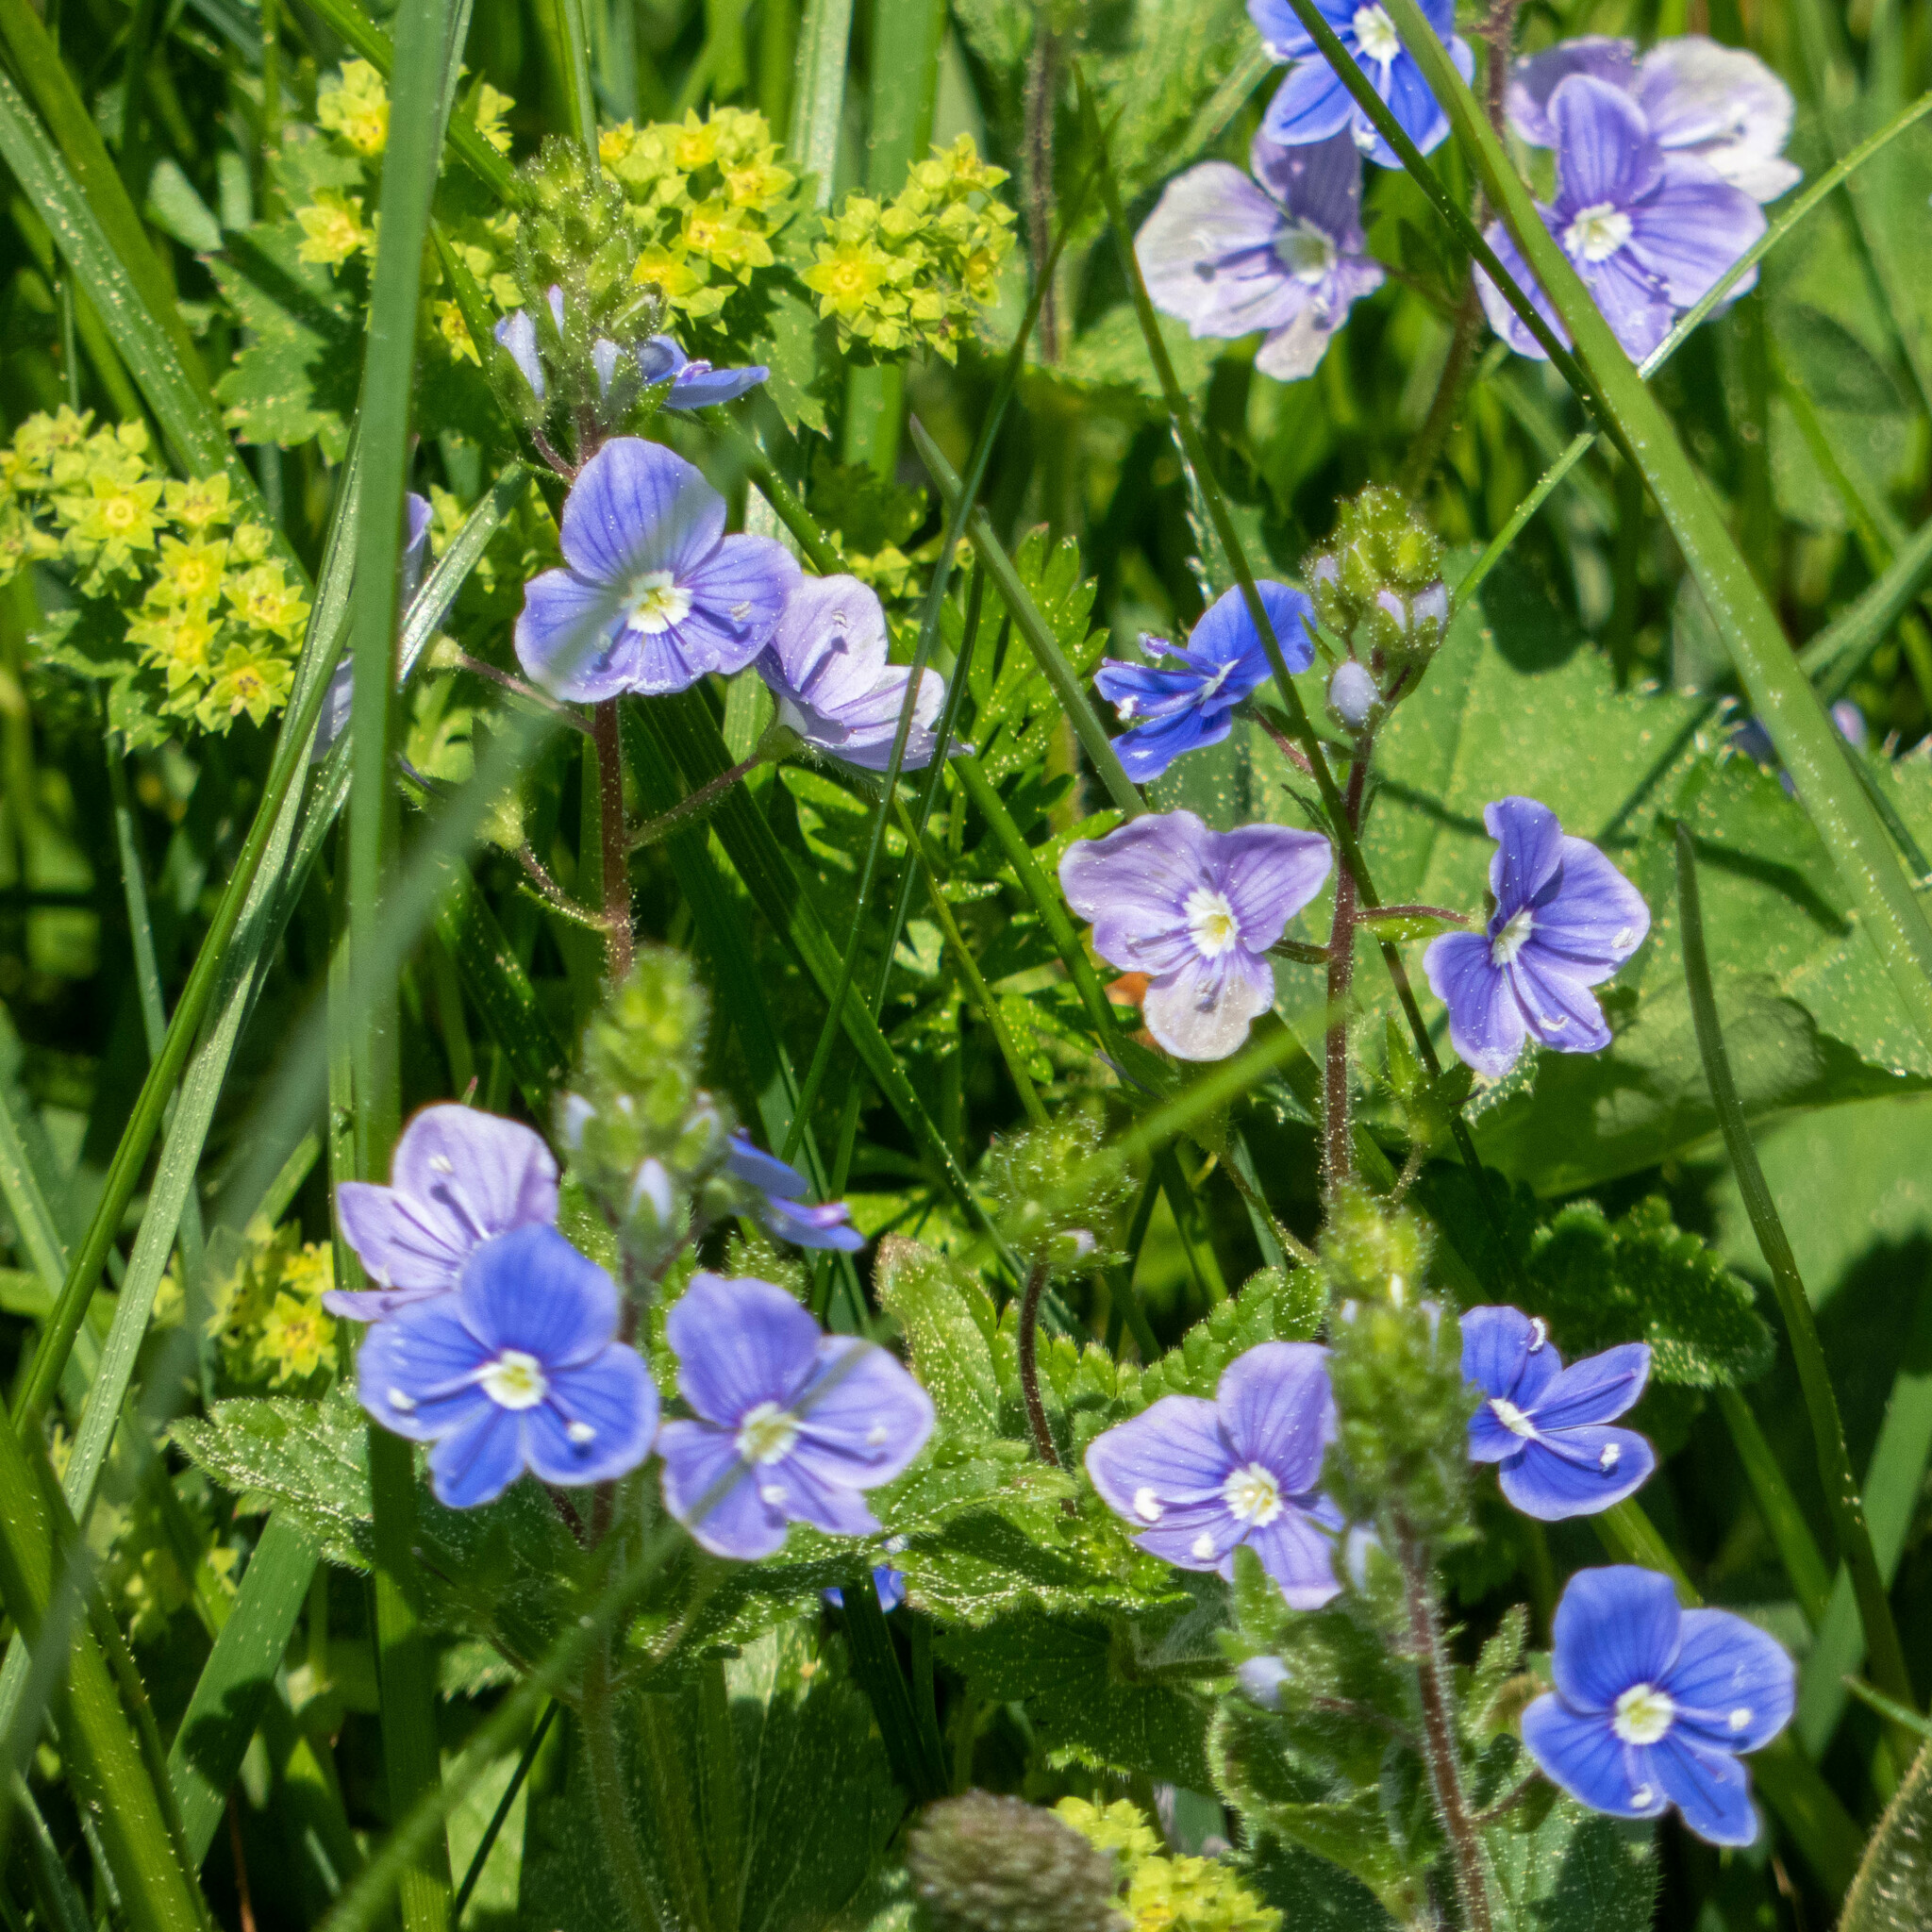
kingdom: Plantae
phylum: Tracheophyta
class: Magnoliopsida
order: Lamiales
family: Plantaginaceae
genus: Veronica
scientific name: Veronica chamaedrys
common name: Germander speedwell
